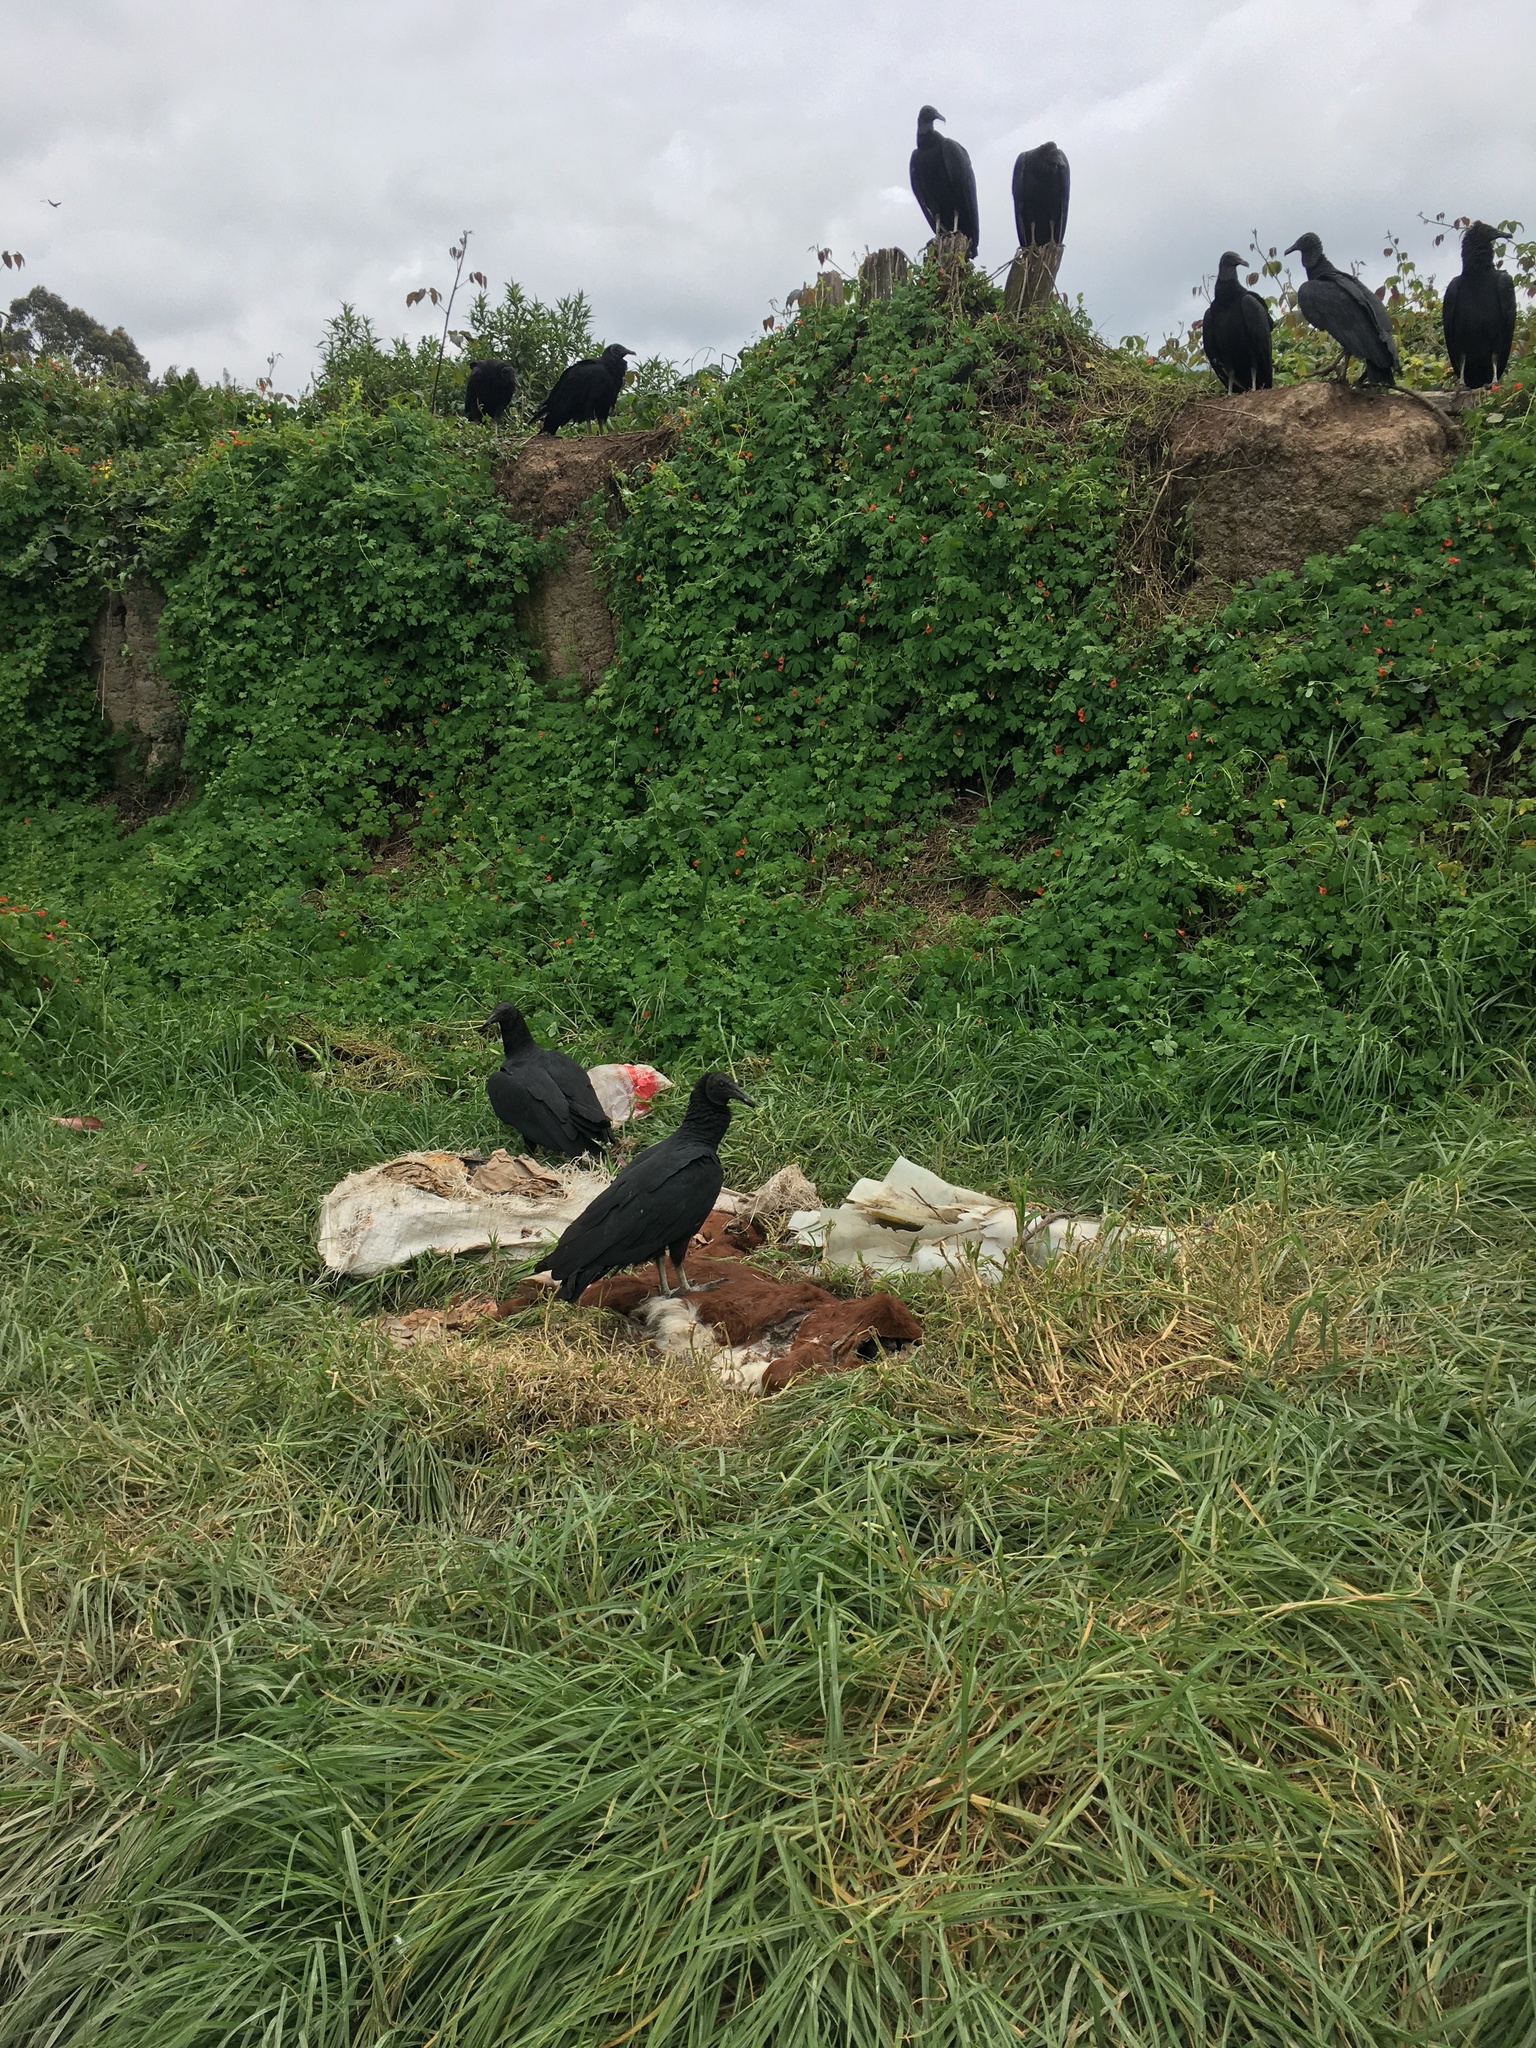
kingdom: Animalia
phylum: Chordata
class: Aves
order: Accipitriformes
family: Cathartidae
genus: Coragyps
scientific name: Coragyps atratus
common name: Black vulture
